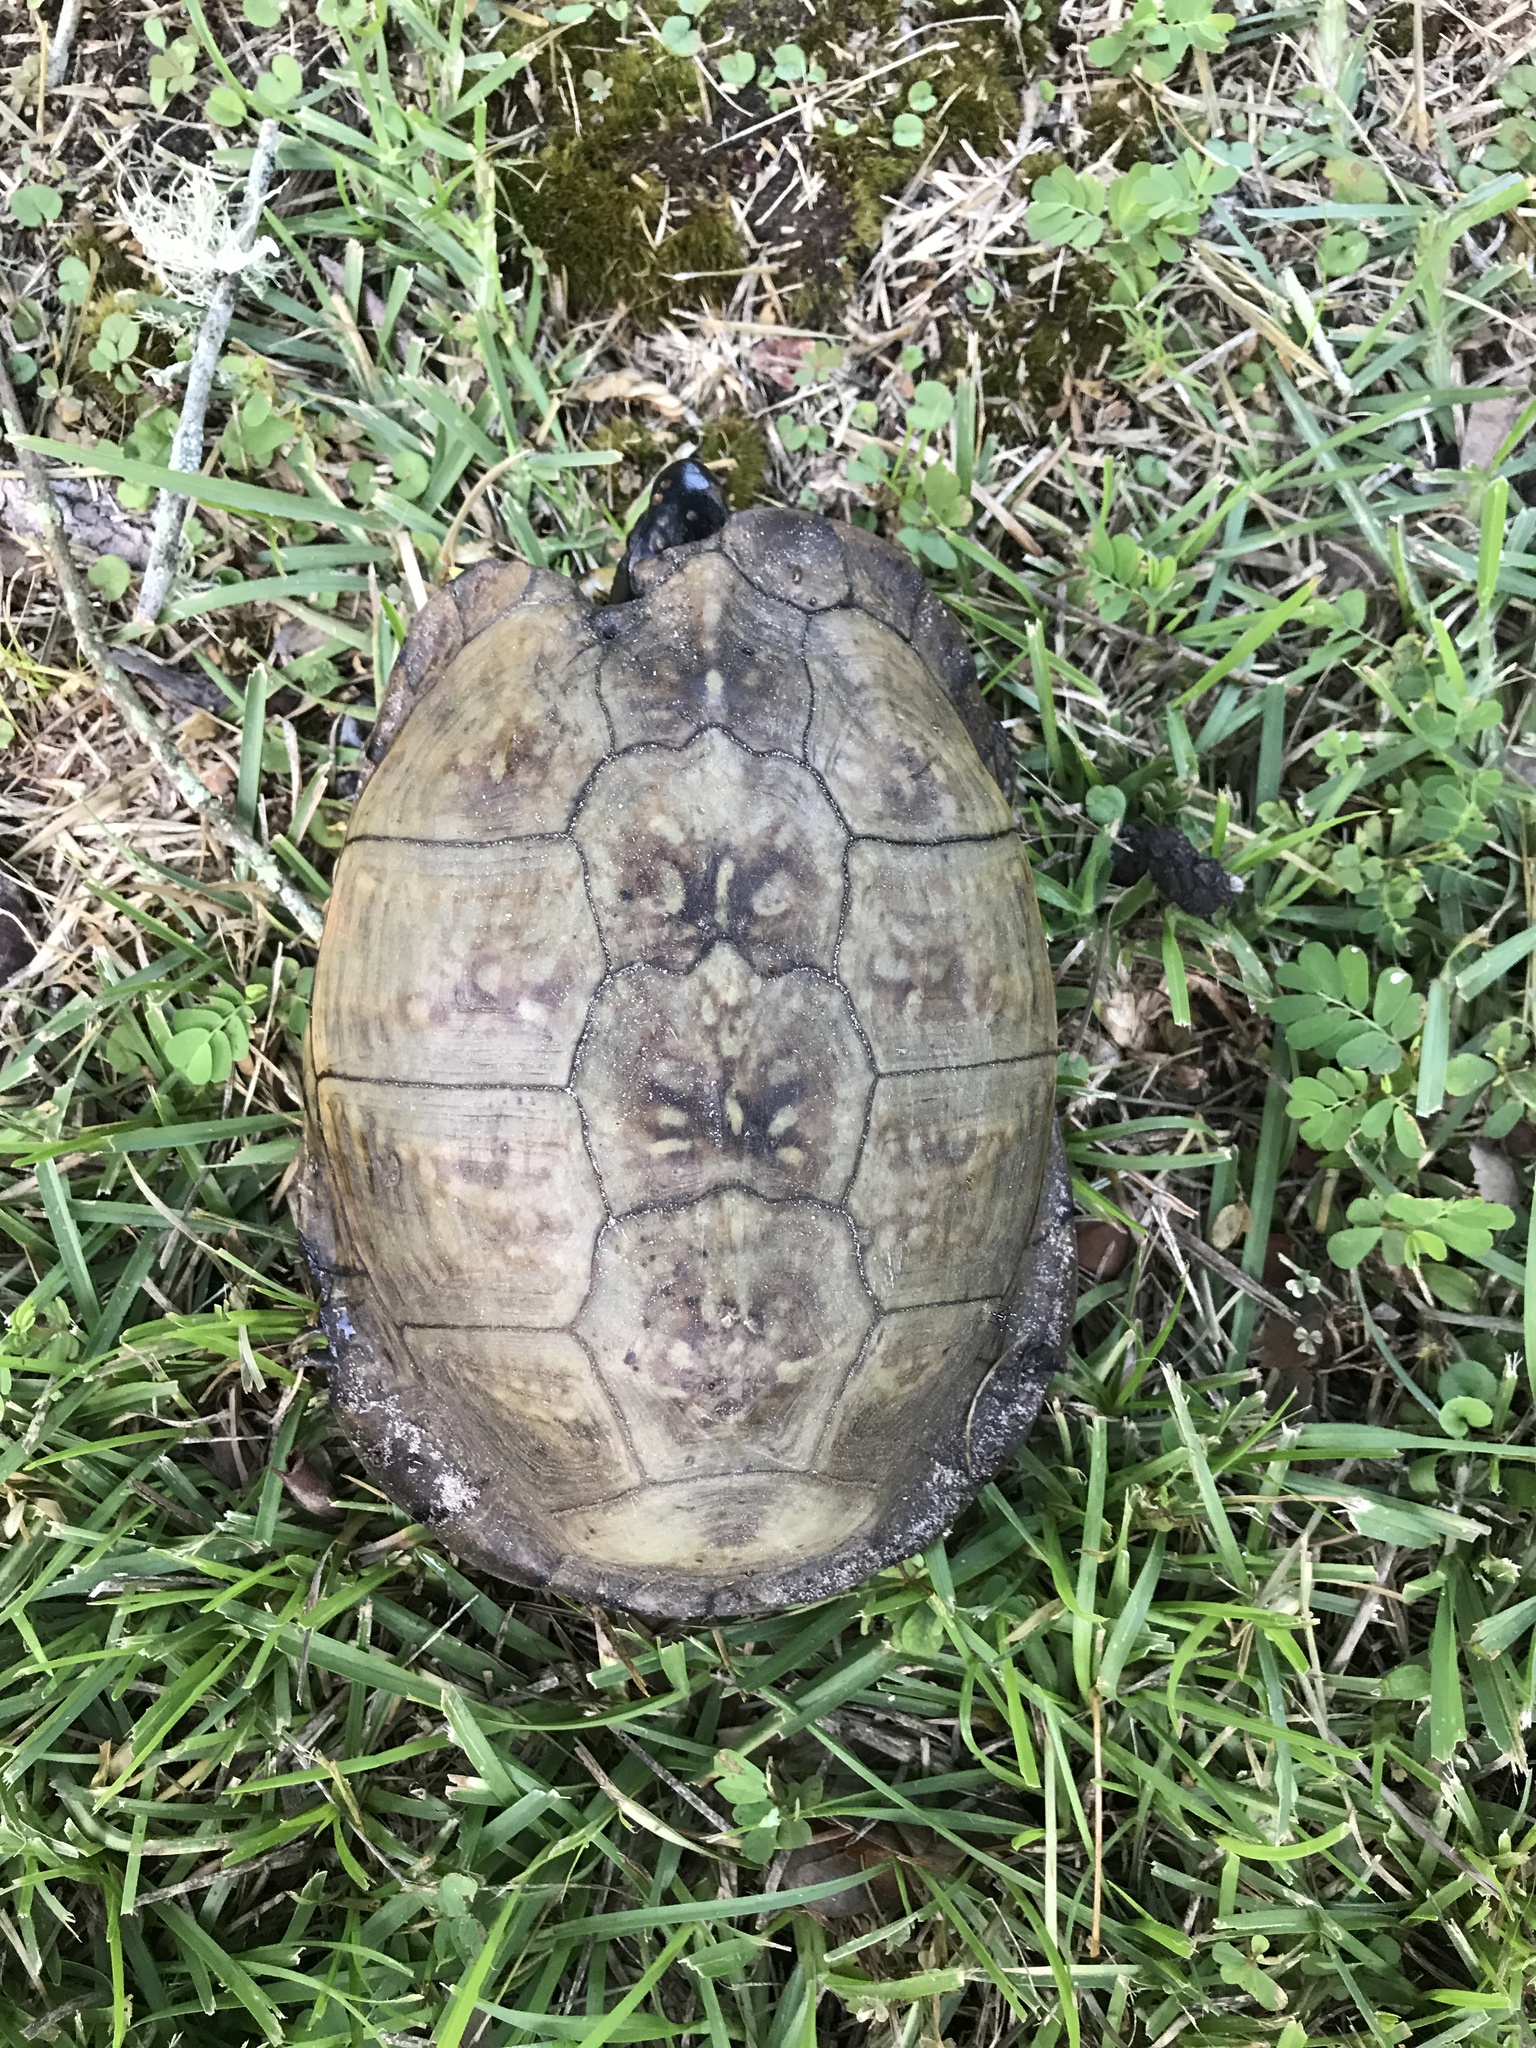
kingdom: Animalia
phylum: Chordata
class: Testudines
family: Emydidae
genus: Terrapene
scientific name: Terrapene carolina
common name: Common box turtle
